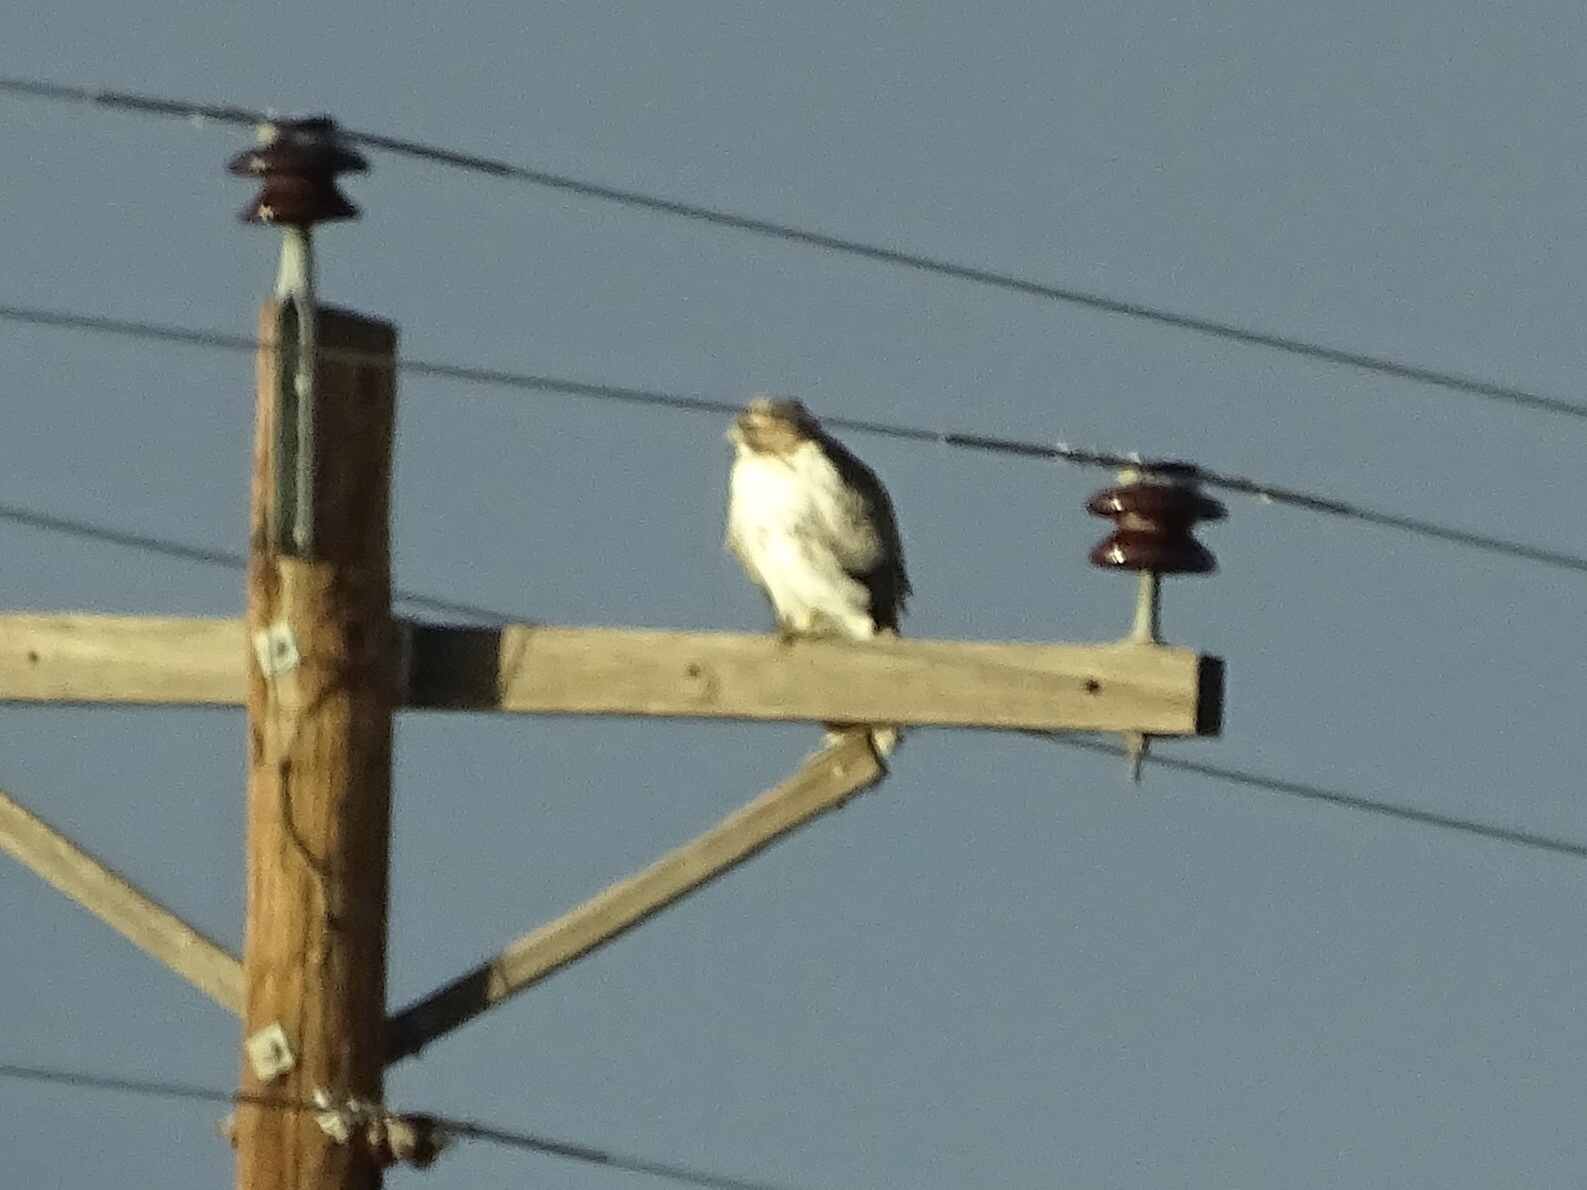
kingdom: Animalia
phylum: Chordata
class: Aves
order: Accipitriformes
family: Accipitridae
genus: Buteo
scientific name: Buteo jamaicensis
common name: Red-tailed hawk
